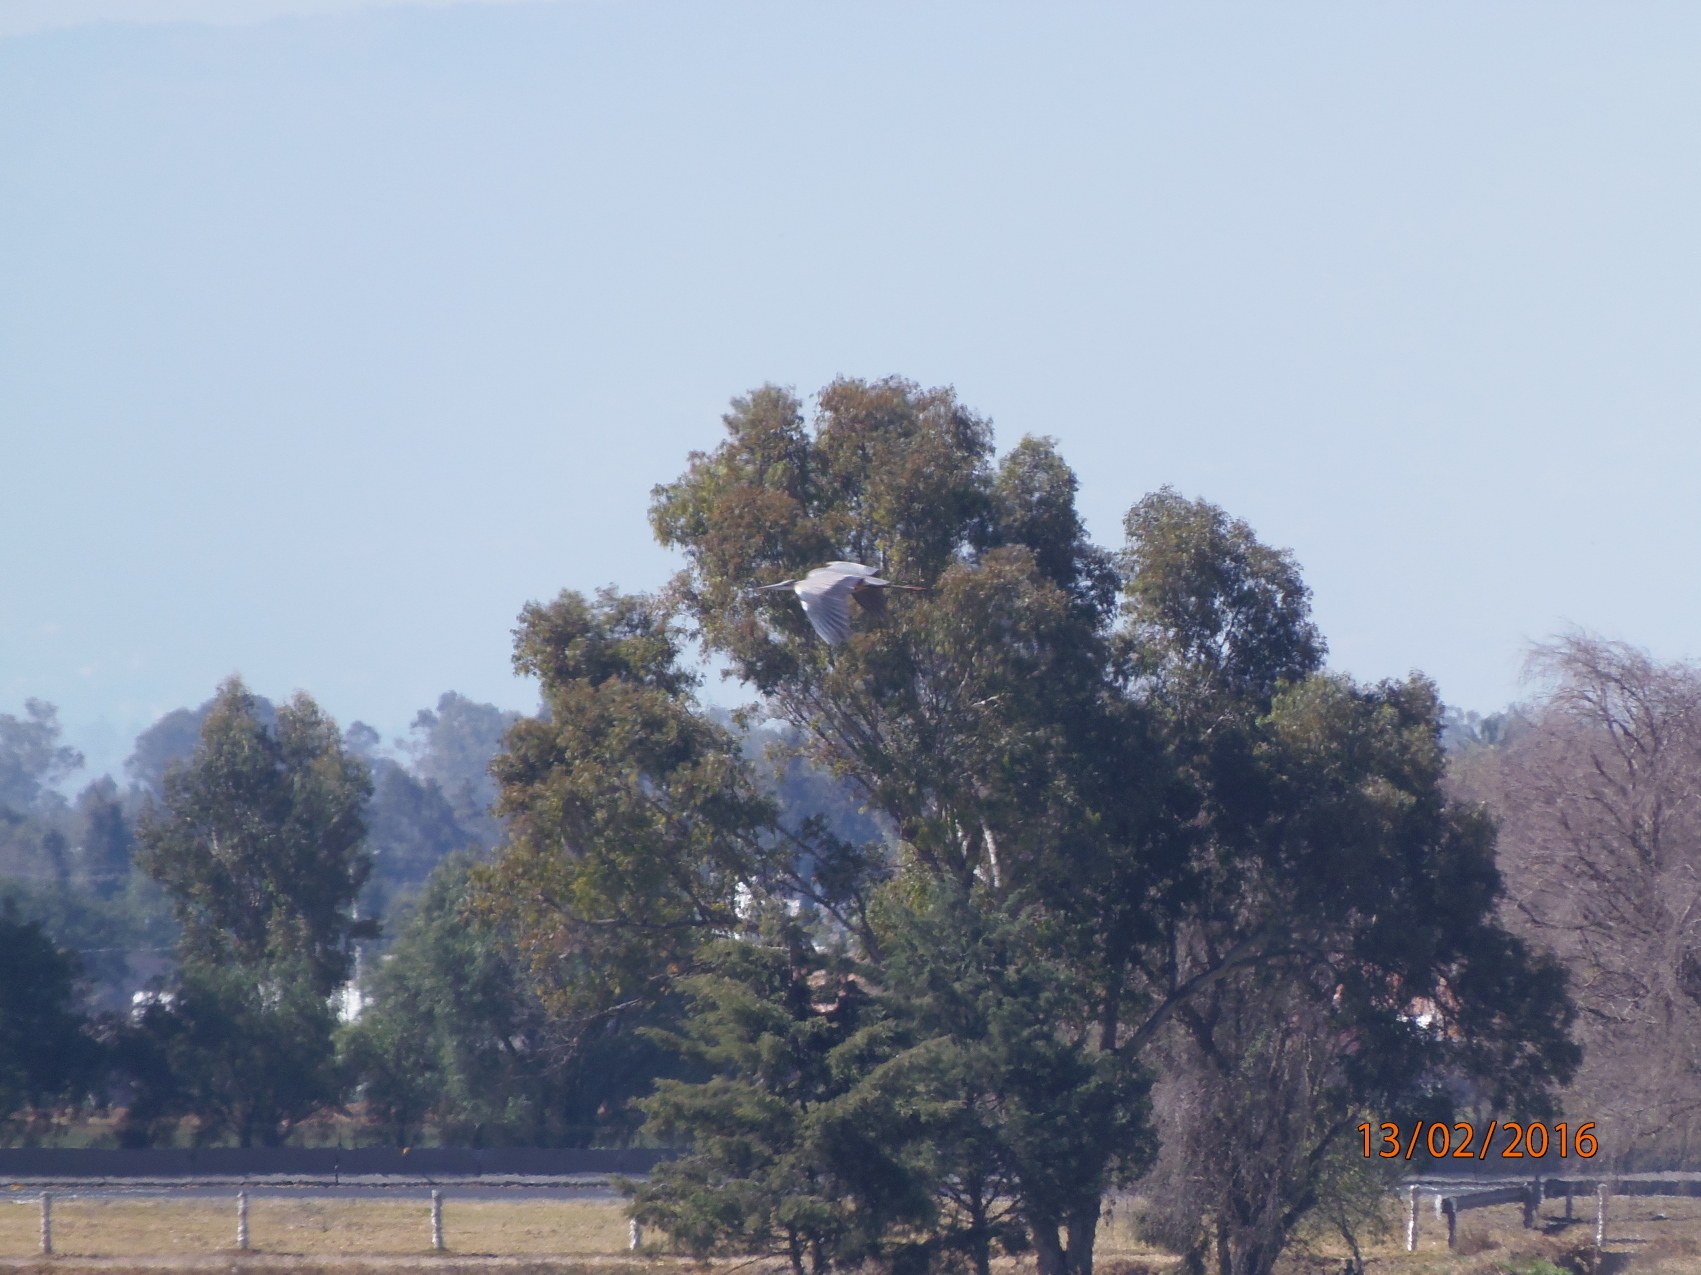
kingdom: Animalia
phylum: Chordata
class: Aves
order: Pelecaniformes
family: Ardeidae
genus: Ardea
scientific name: Ardea herodias
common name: Great blue heron
